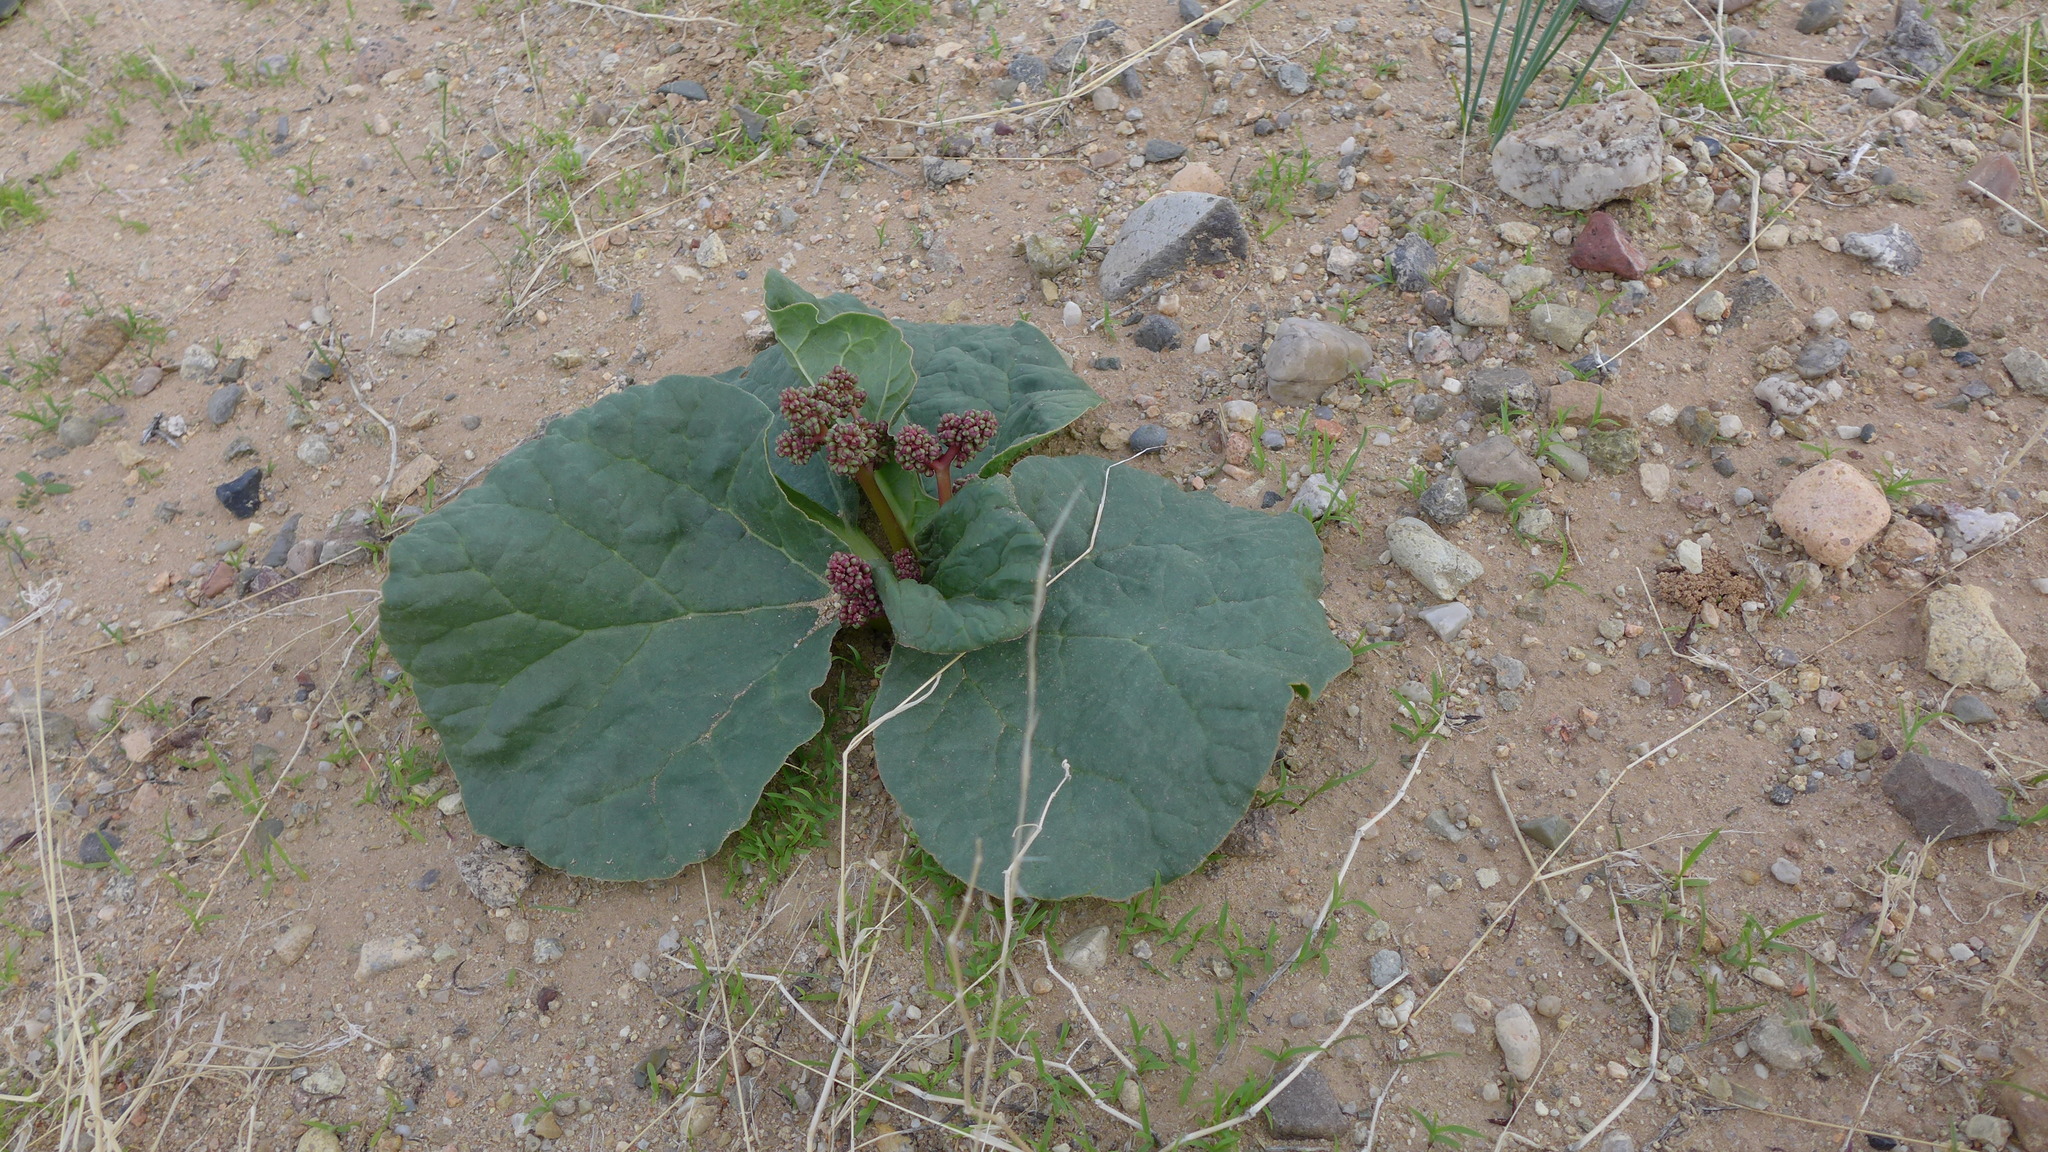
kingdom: Plantae
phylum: Tracheophyta
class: Magnoliopsida
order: Caryophyllales
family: Polygonaceae
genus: Rheum
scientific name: Rheum nanum
